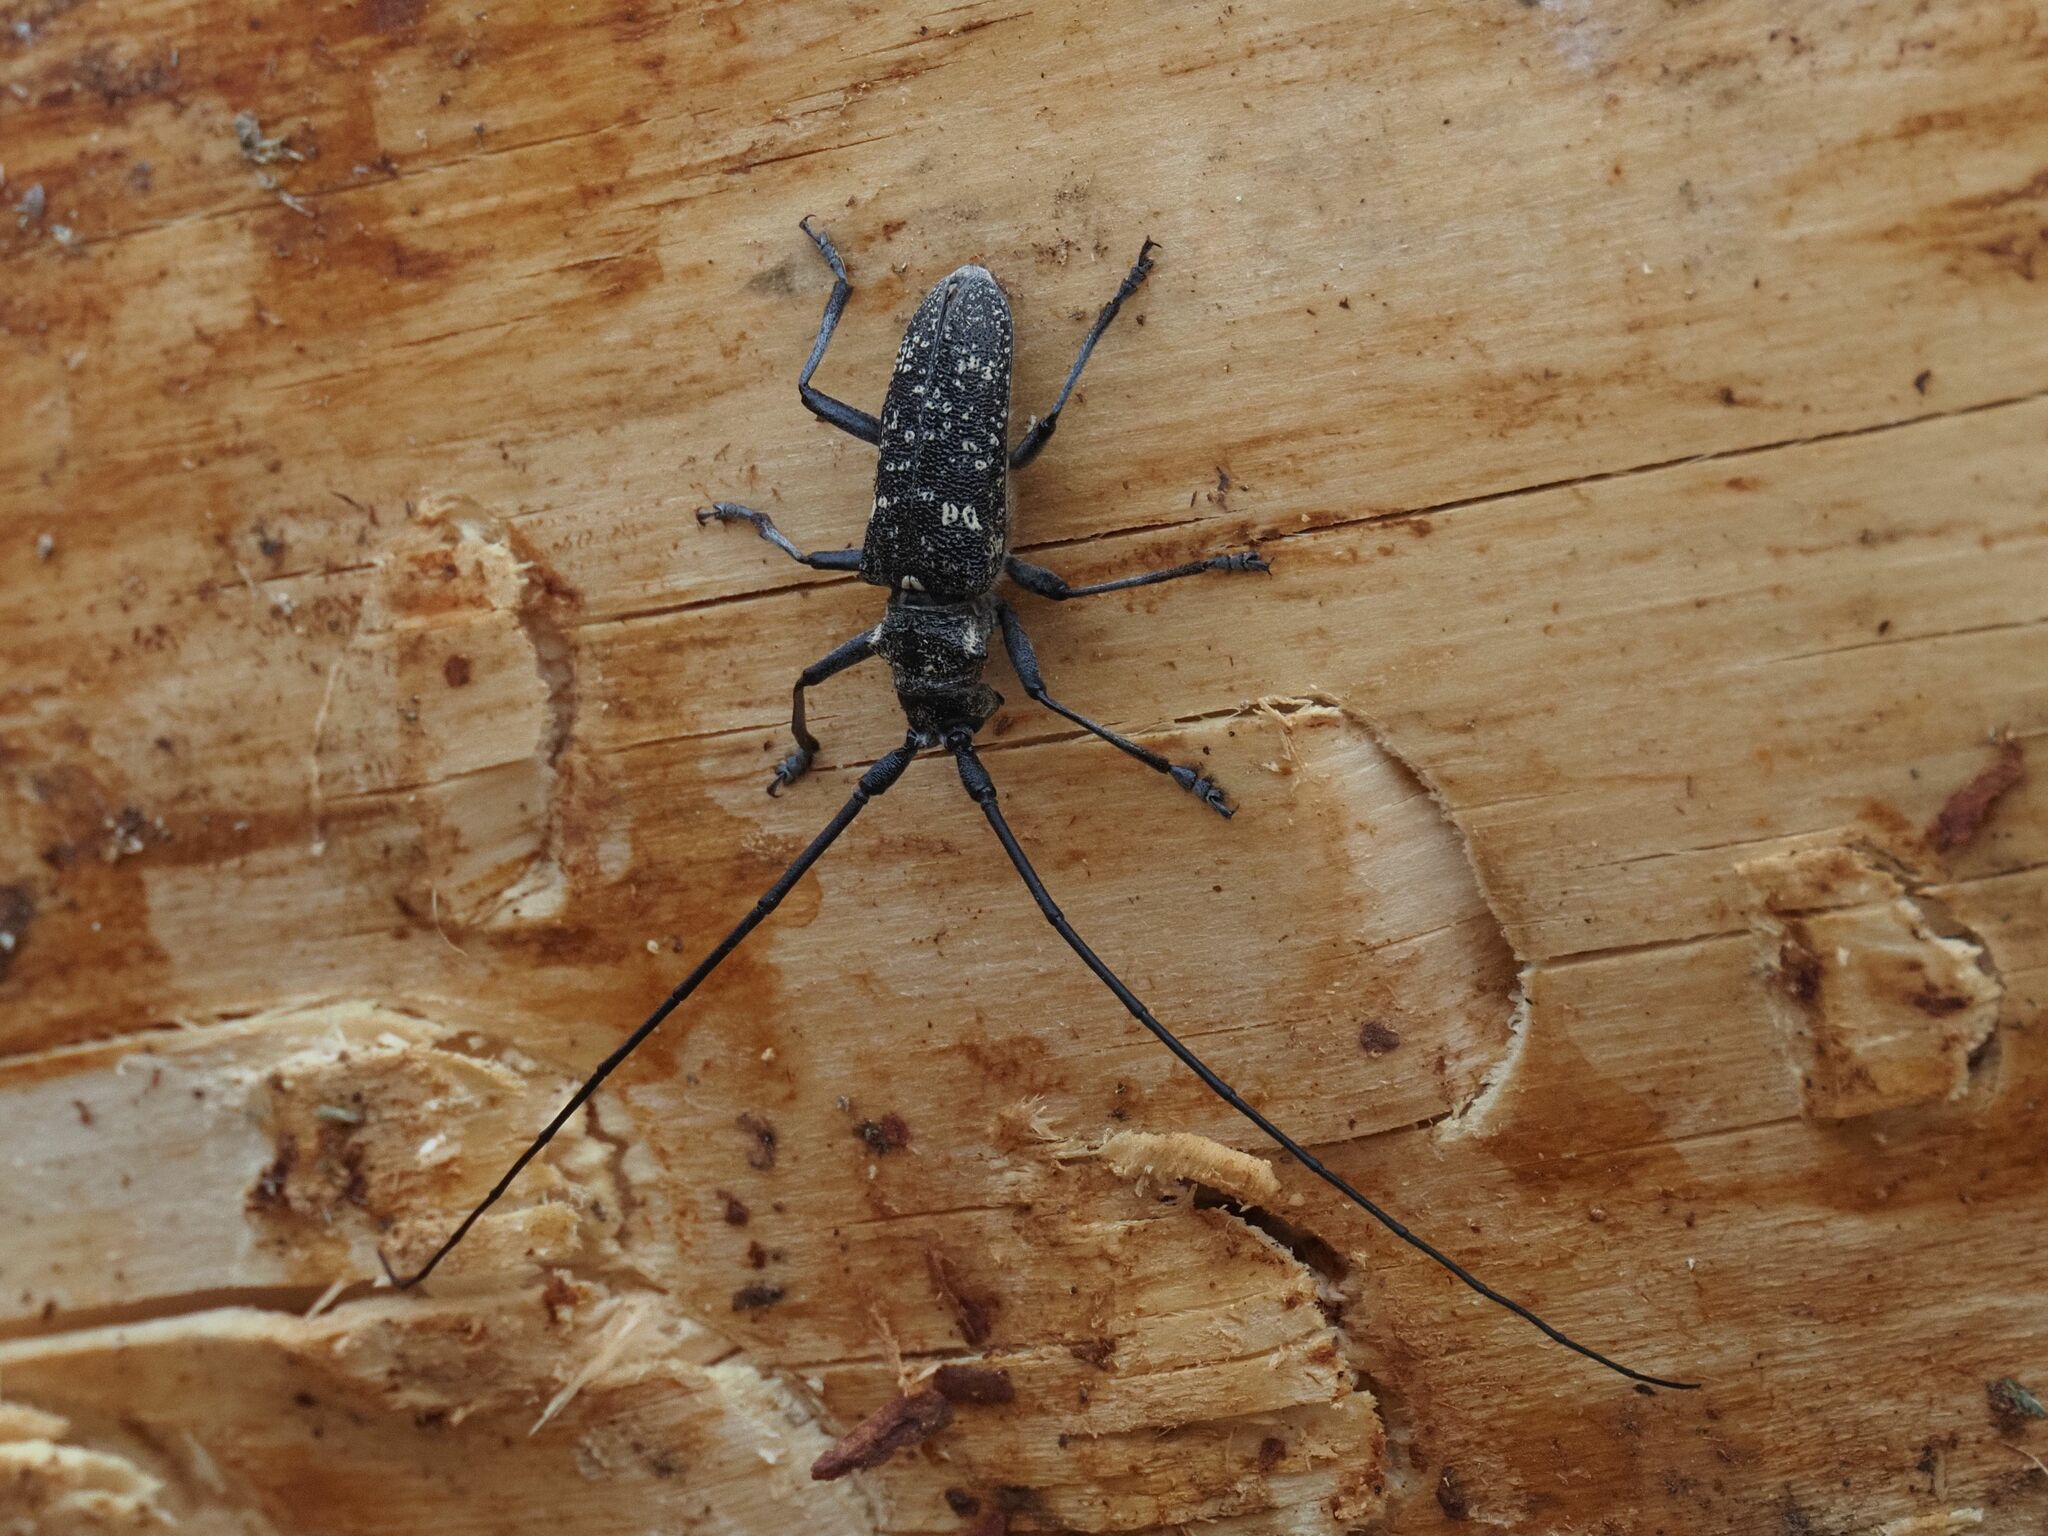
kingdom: Animalia
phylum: Arthropoda
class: Insecta
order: Coleoptera
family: Cerambycidae
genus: Monochamus
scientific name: Monochamus sutor
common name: Pine sawyer
